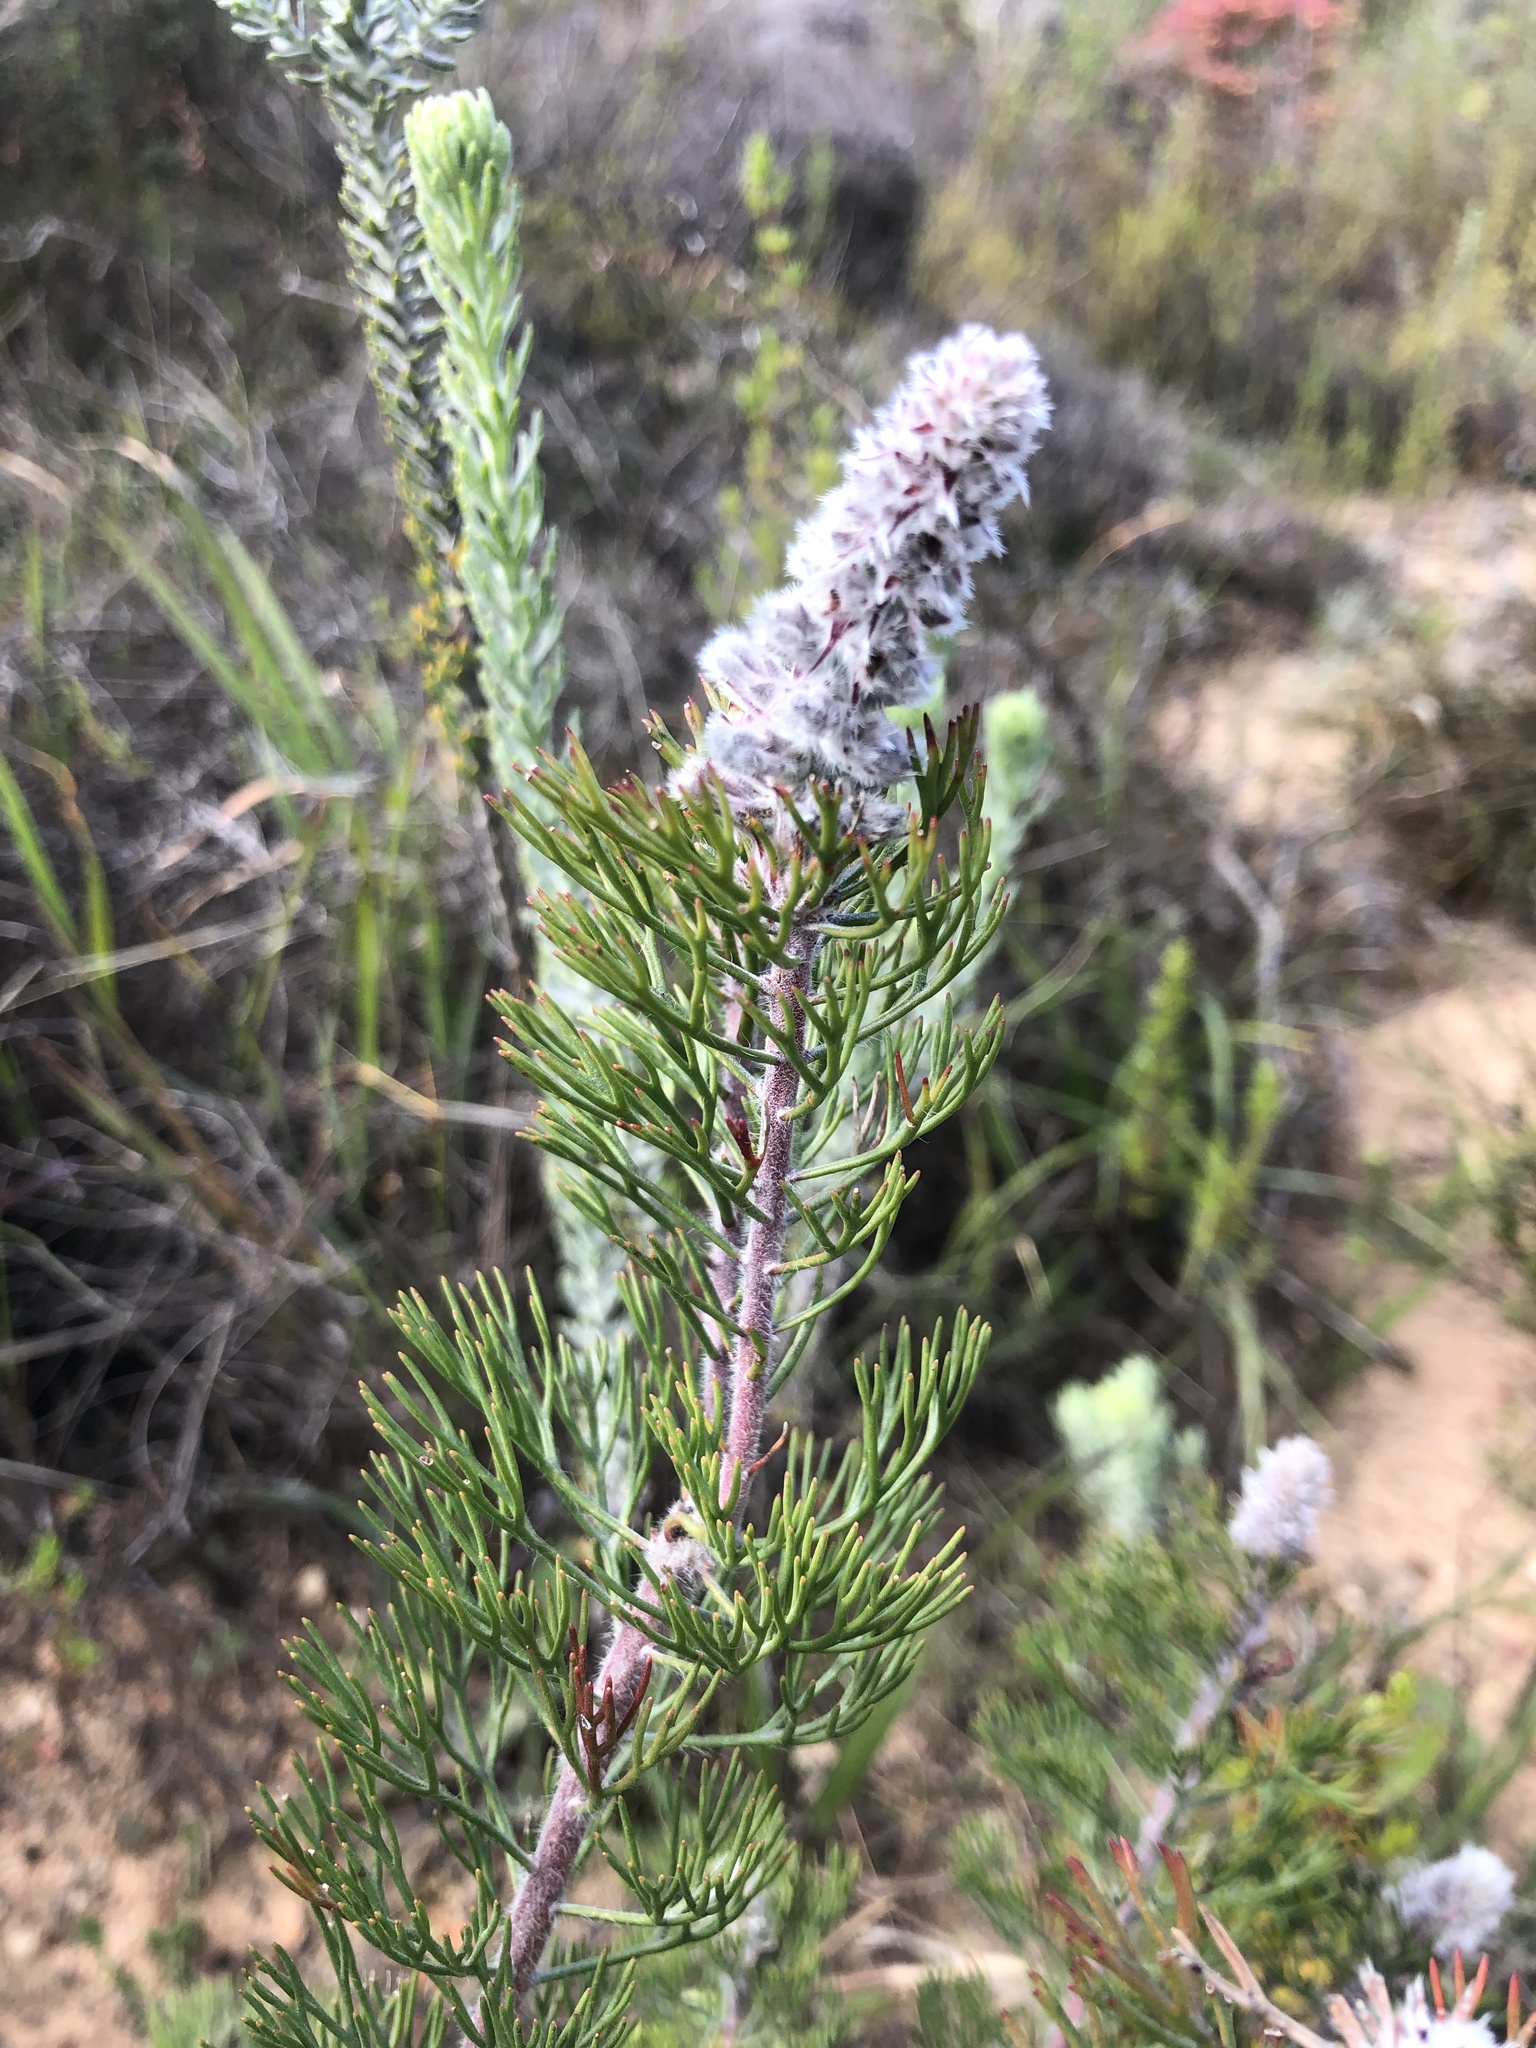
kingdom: Plantae
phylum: Tracheophyta
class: Magnoliopsida
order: Proteales
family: Proteaceae
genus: Paranomus
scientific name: Paranomus lagopus
